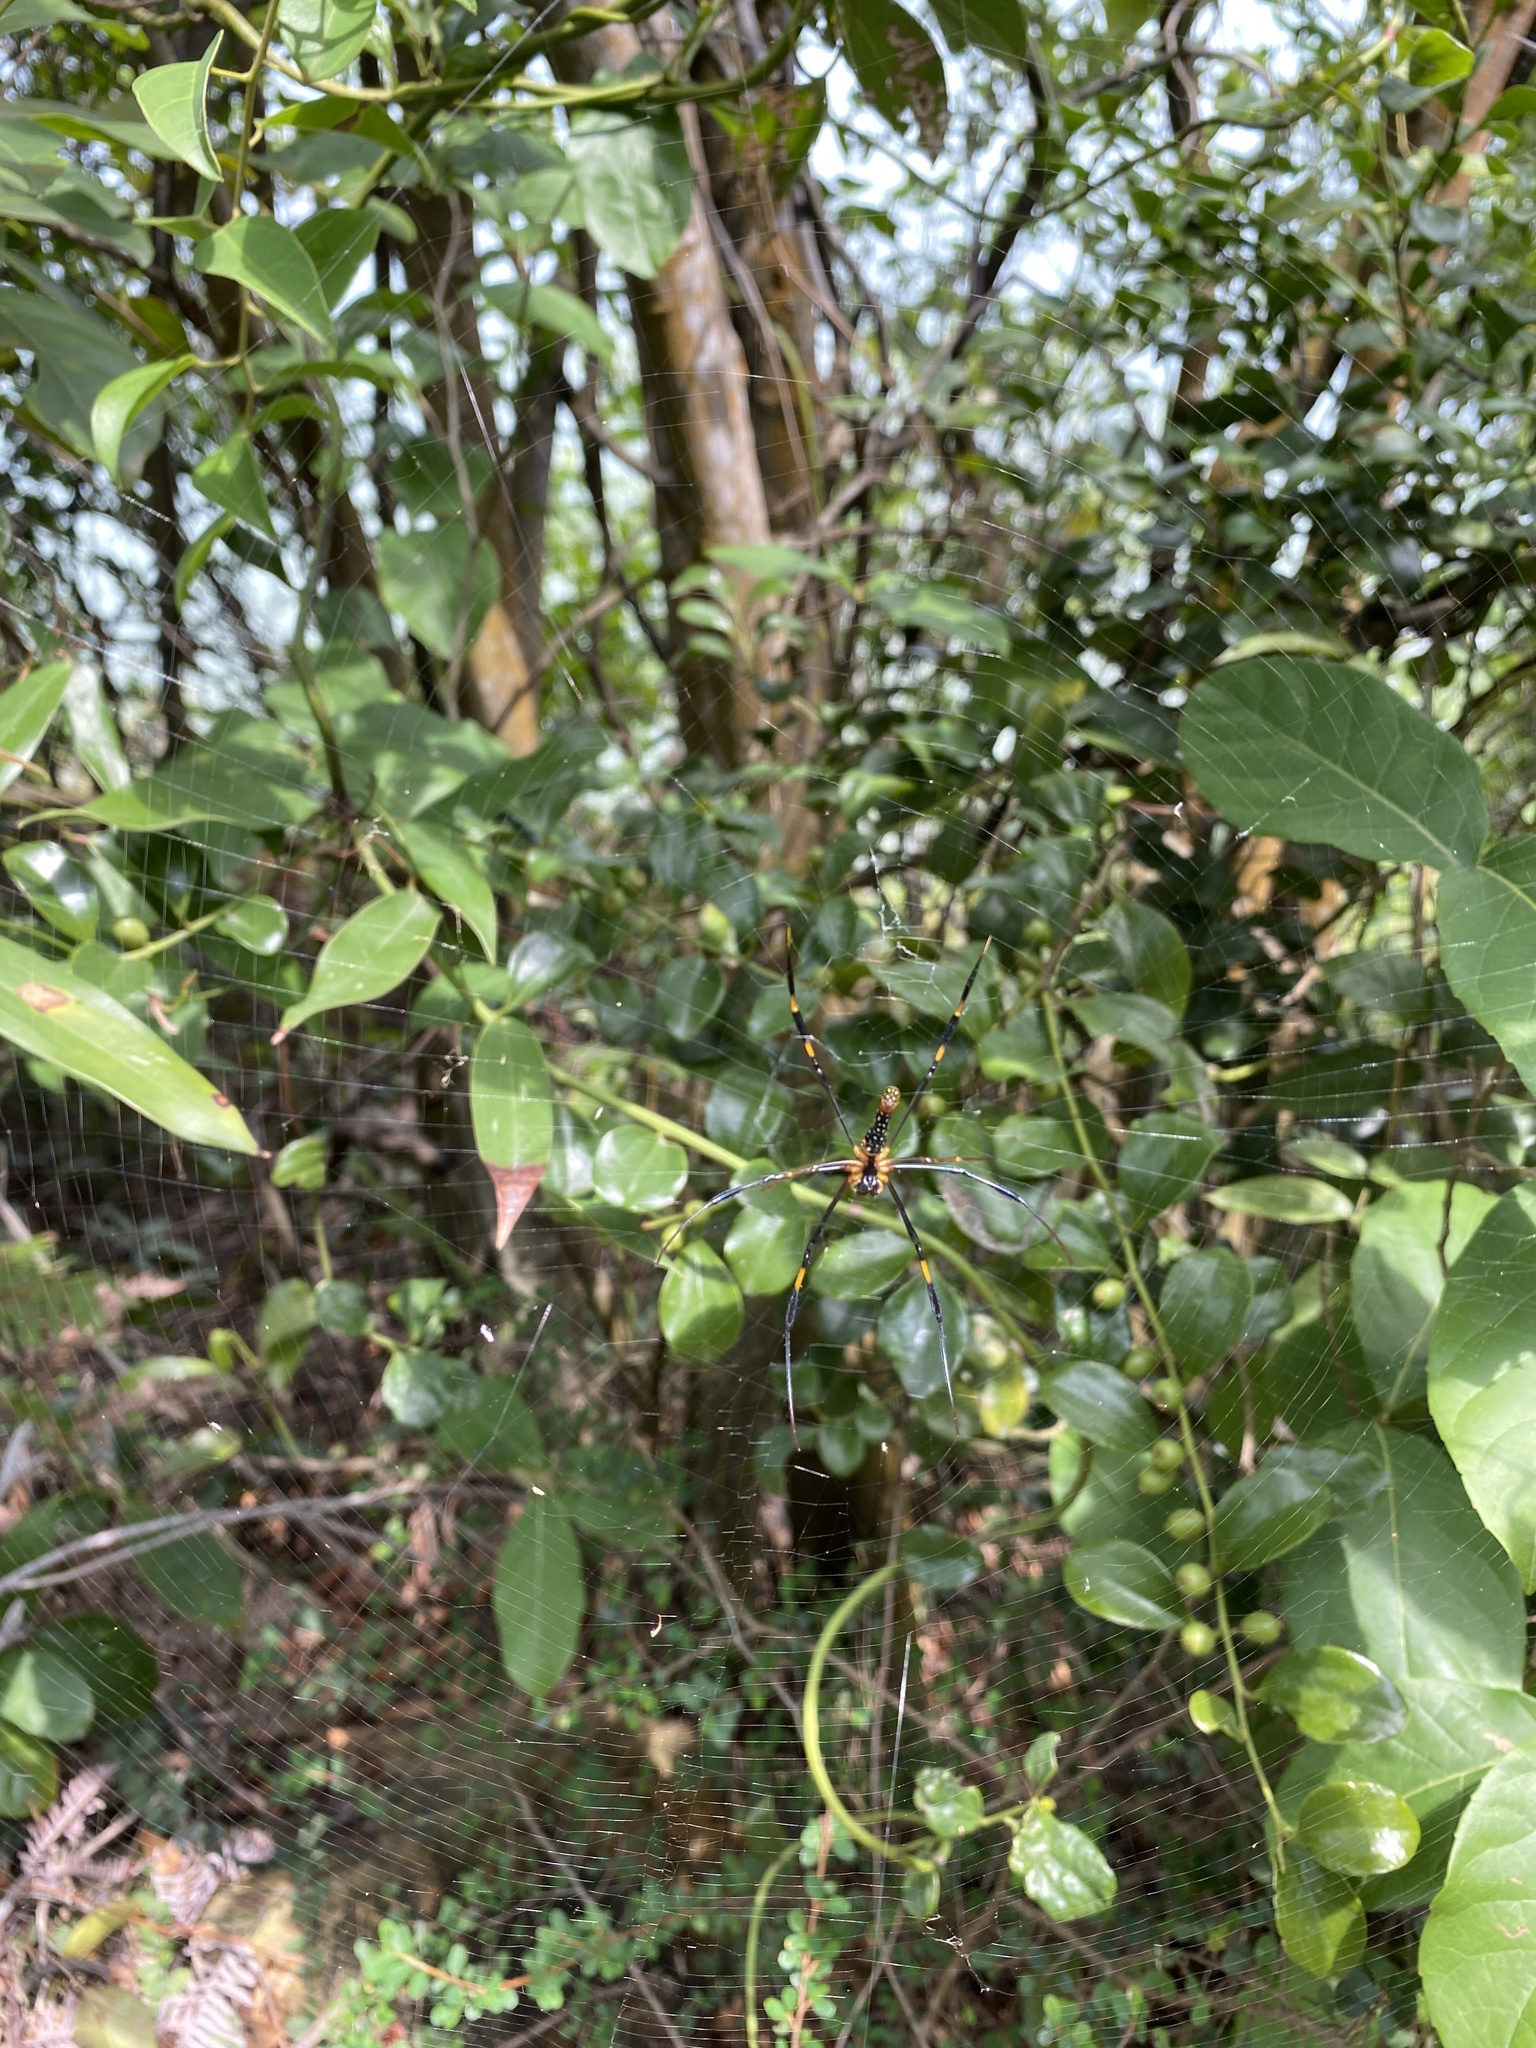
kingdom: Animalia
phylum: Arthropoda
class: Arachnida
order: Araneae
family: Araneidae
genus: Nephila
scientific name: Nephila pilipes
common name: Giant golden orb weaver
